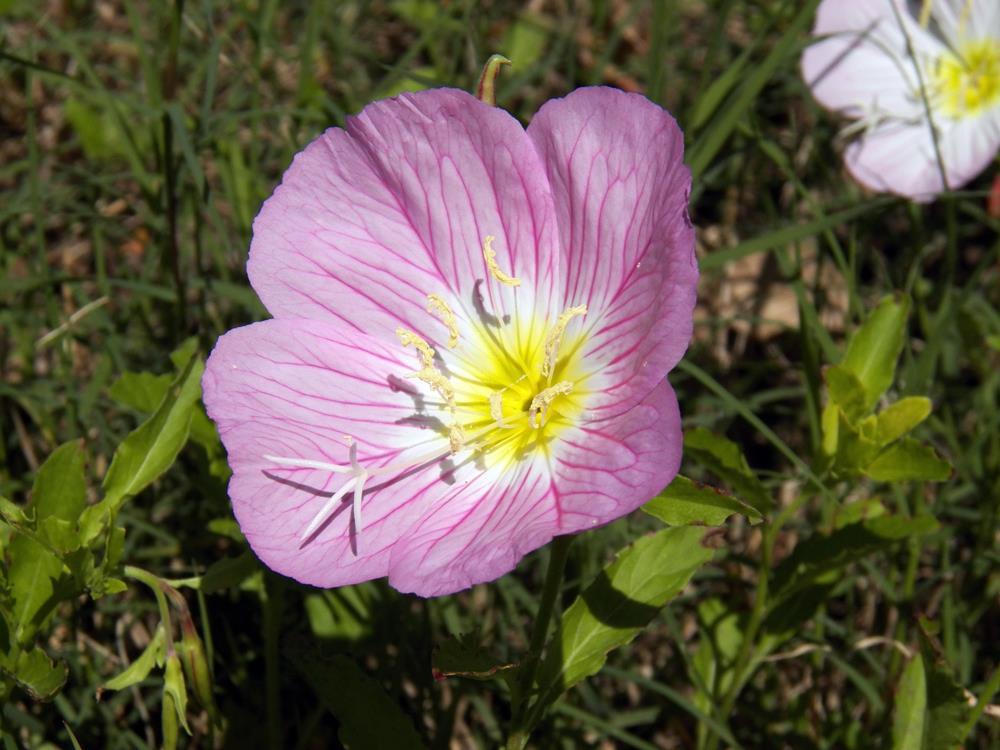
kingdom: Plantae
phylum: Tracheophyta
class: Magnoliopsida
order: Myrtales
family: Onagraceae
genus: Oenothera
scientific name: Oenothera speciosa
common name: White evening-primrose
